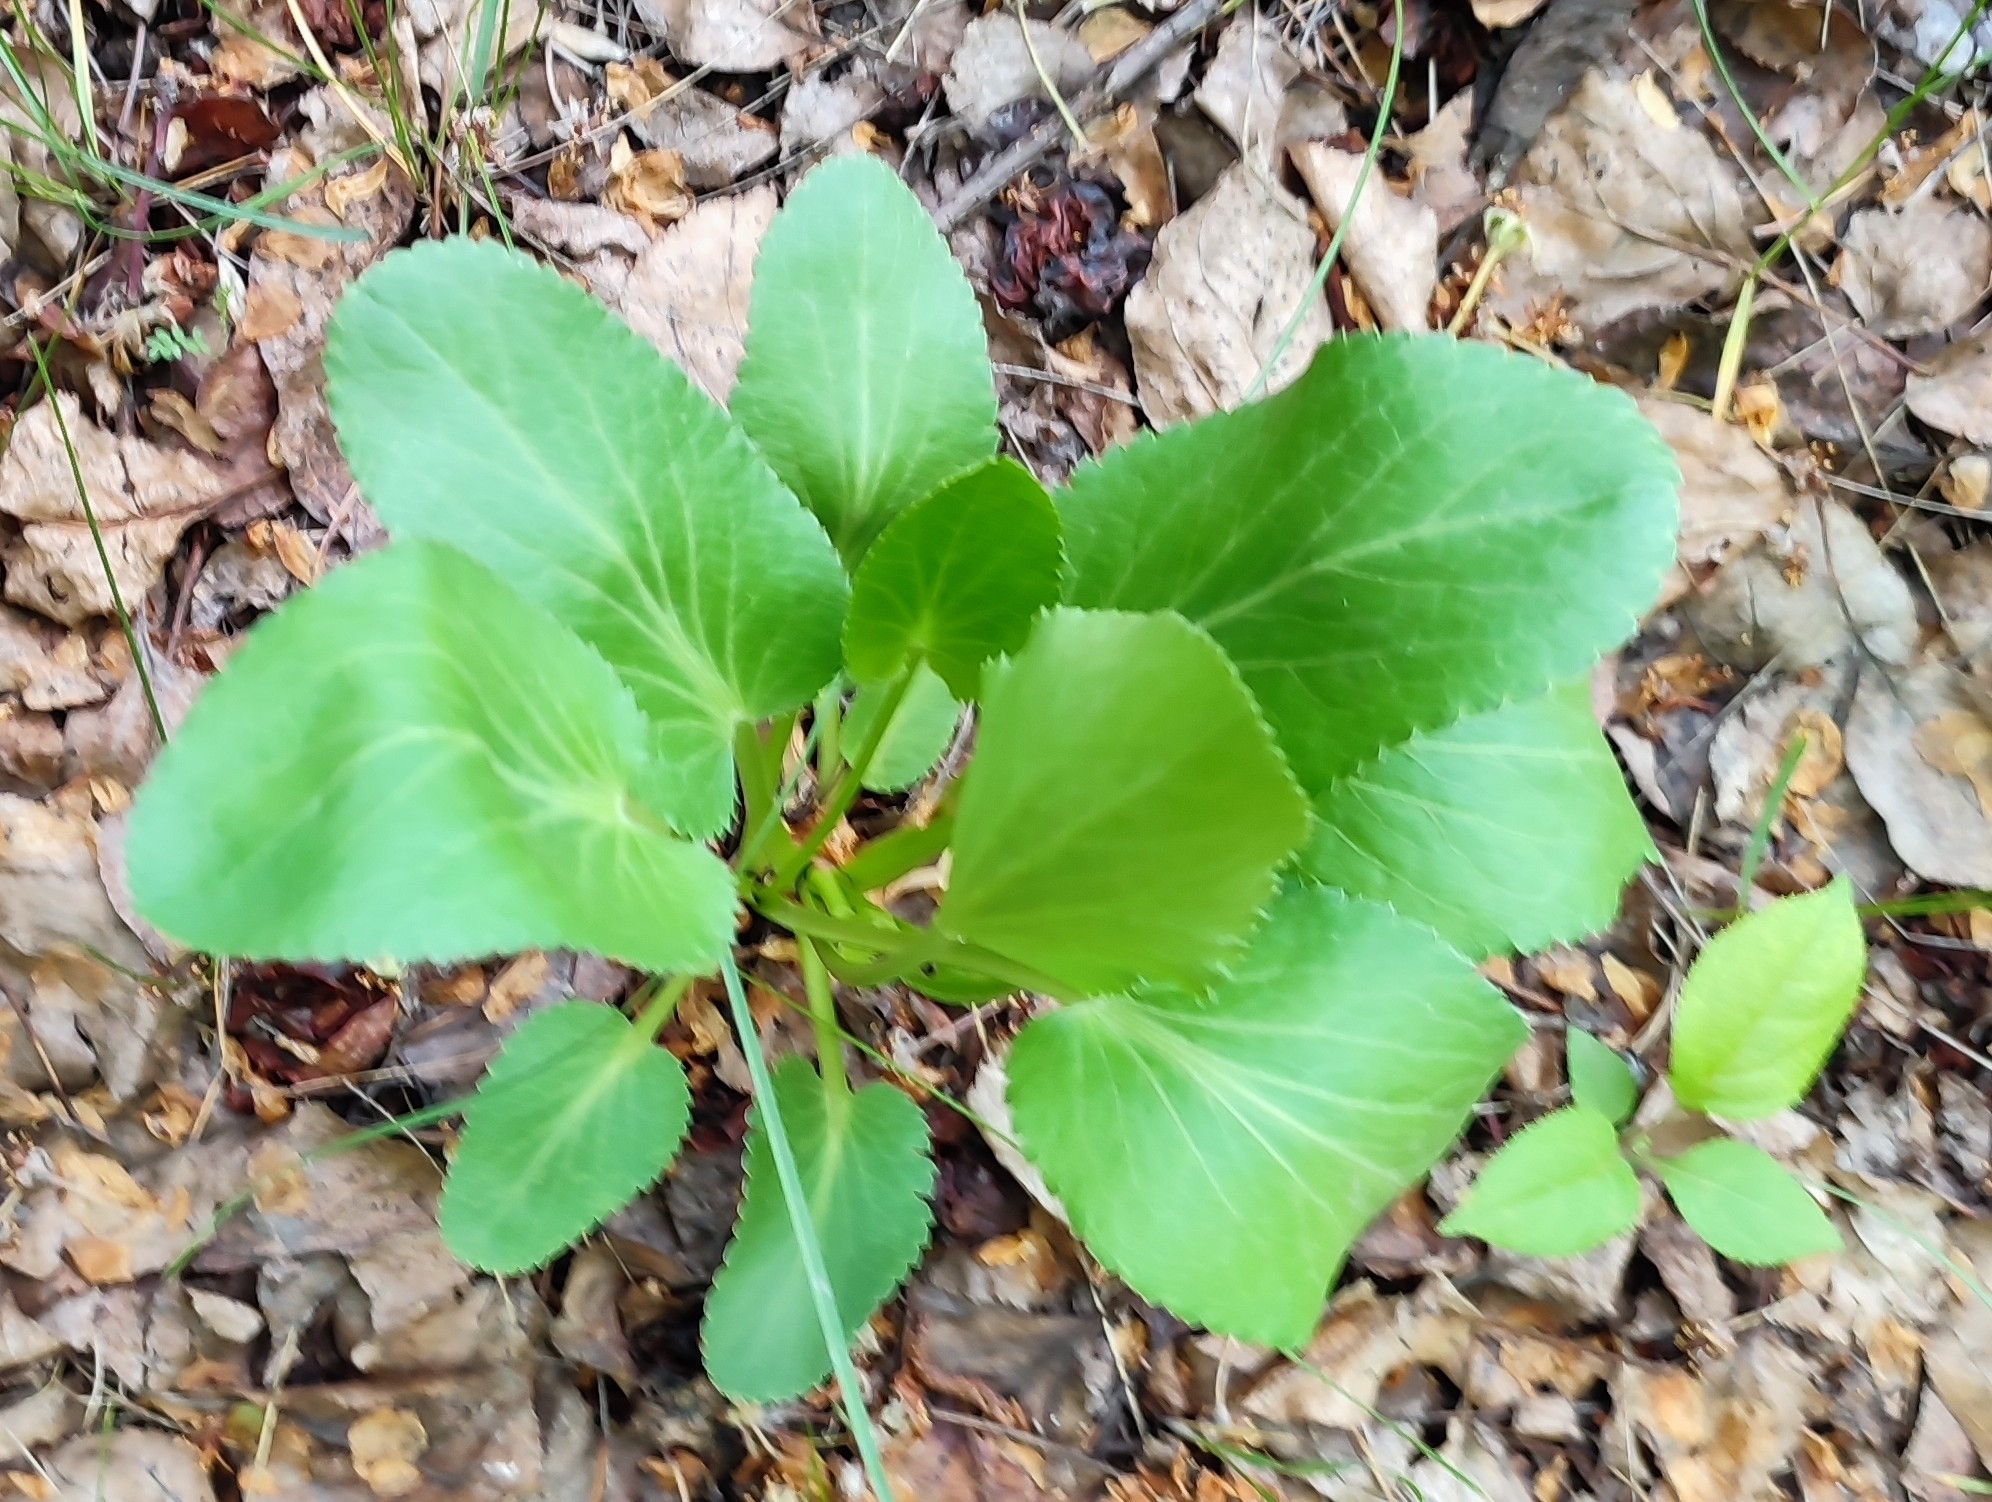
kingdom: Plantae
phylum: Tracheophyta
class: Magnoliopsida
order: Apiales
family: Apiaceae
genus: Eryngium
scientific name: Eryngium planum
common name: Blue eryngo
